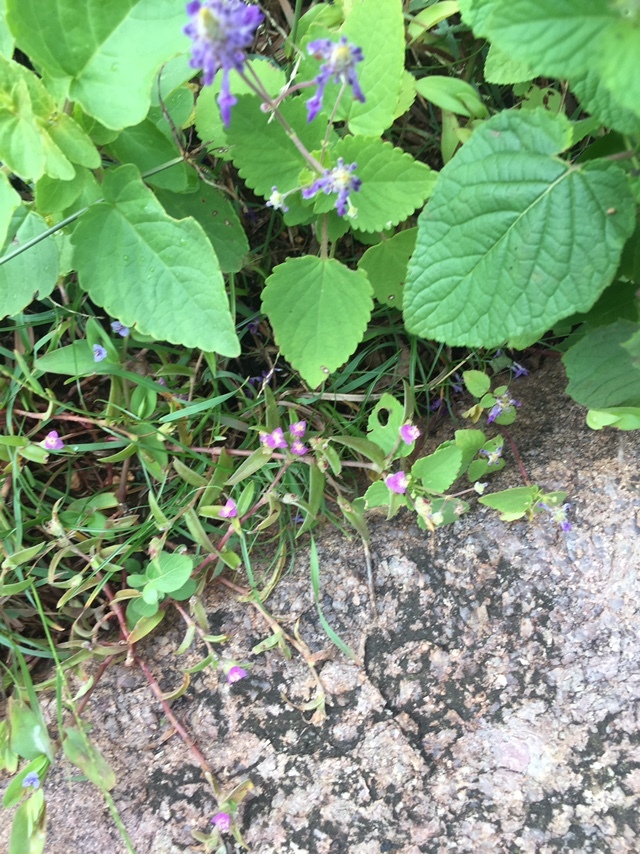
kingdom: Plantae
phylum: Tracheophyta
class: Liliopsida
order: Commelinales
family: Commelinaceae
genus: Cyanotis
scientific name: Cyanotis fasciculata
